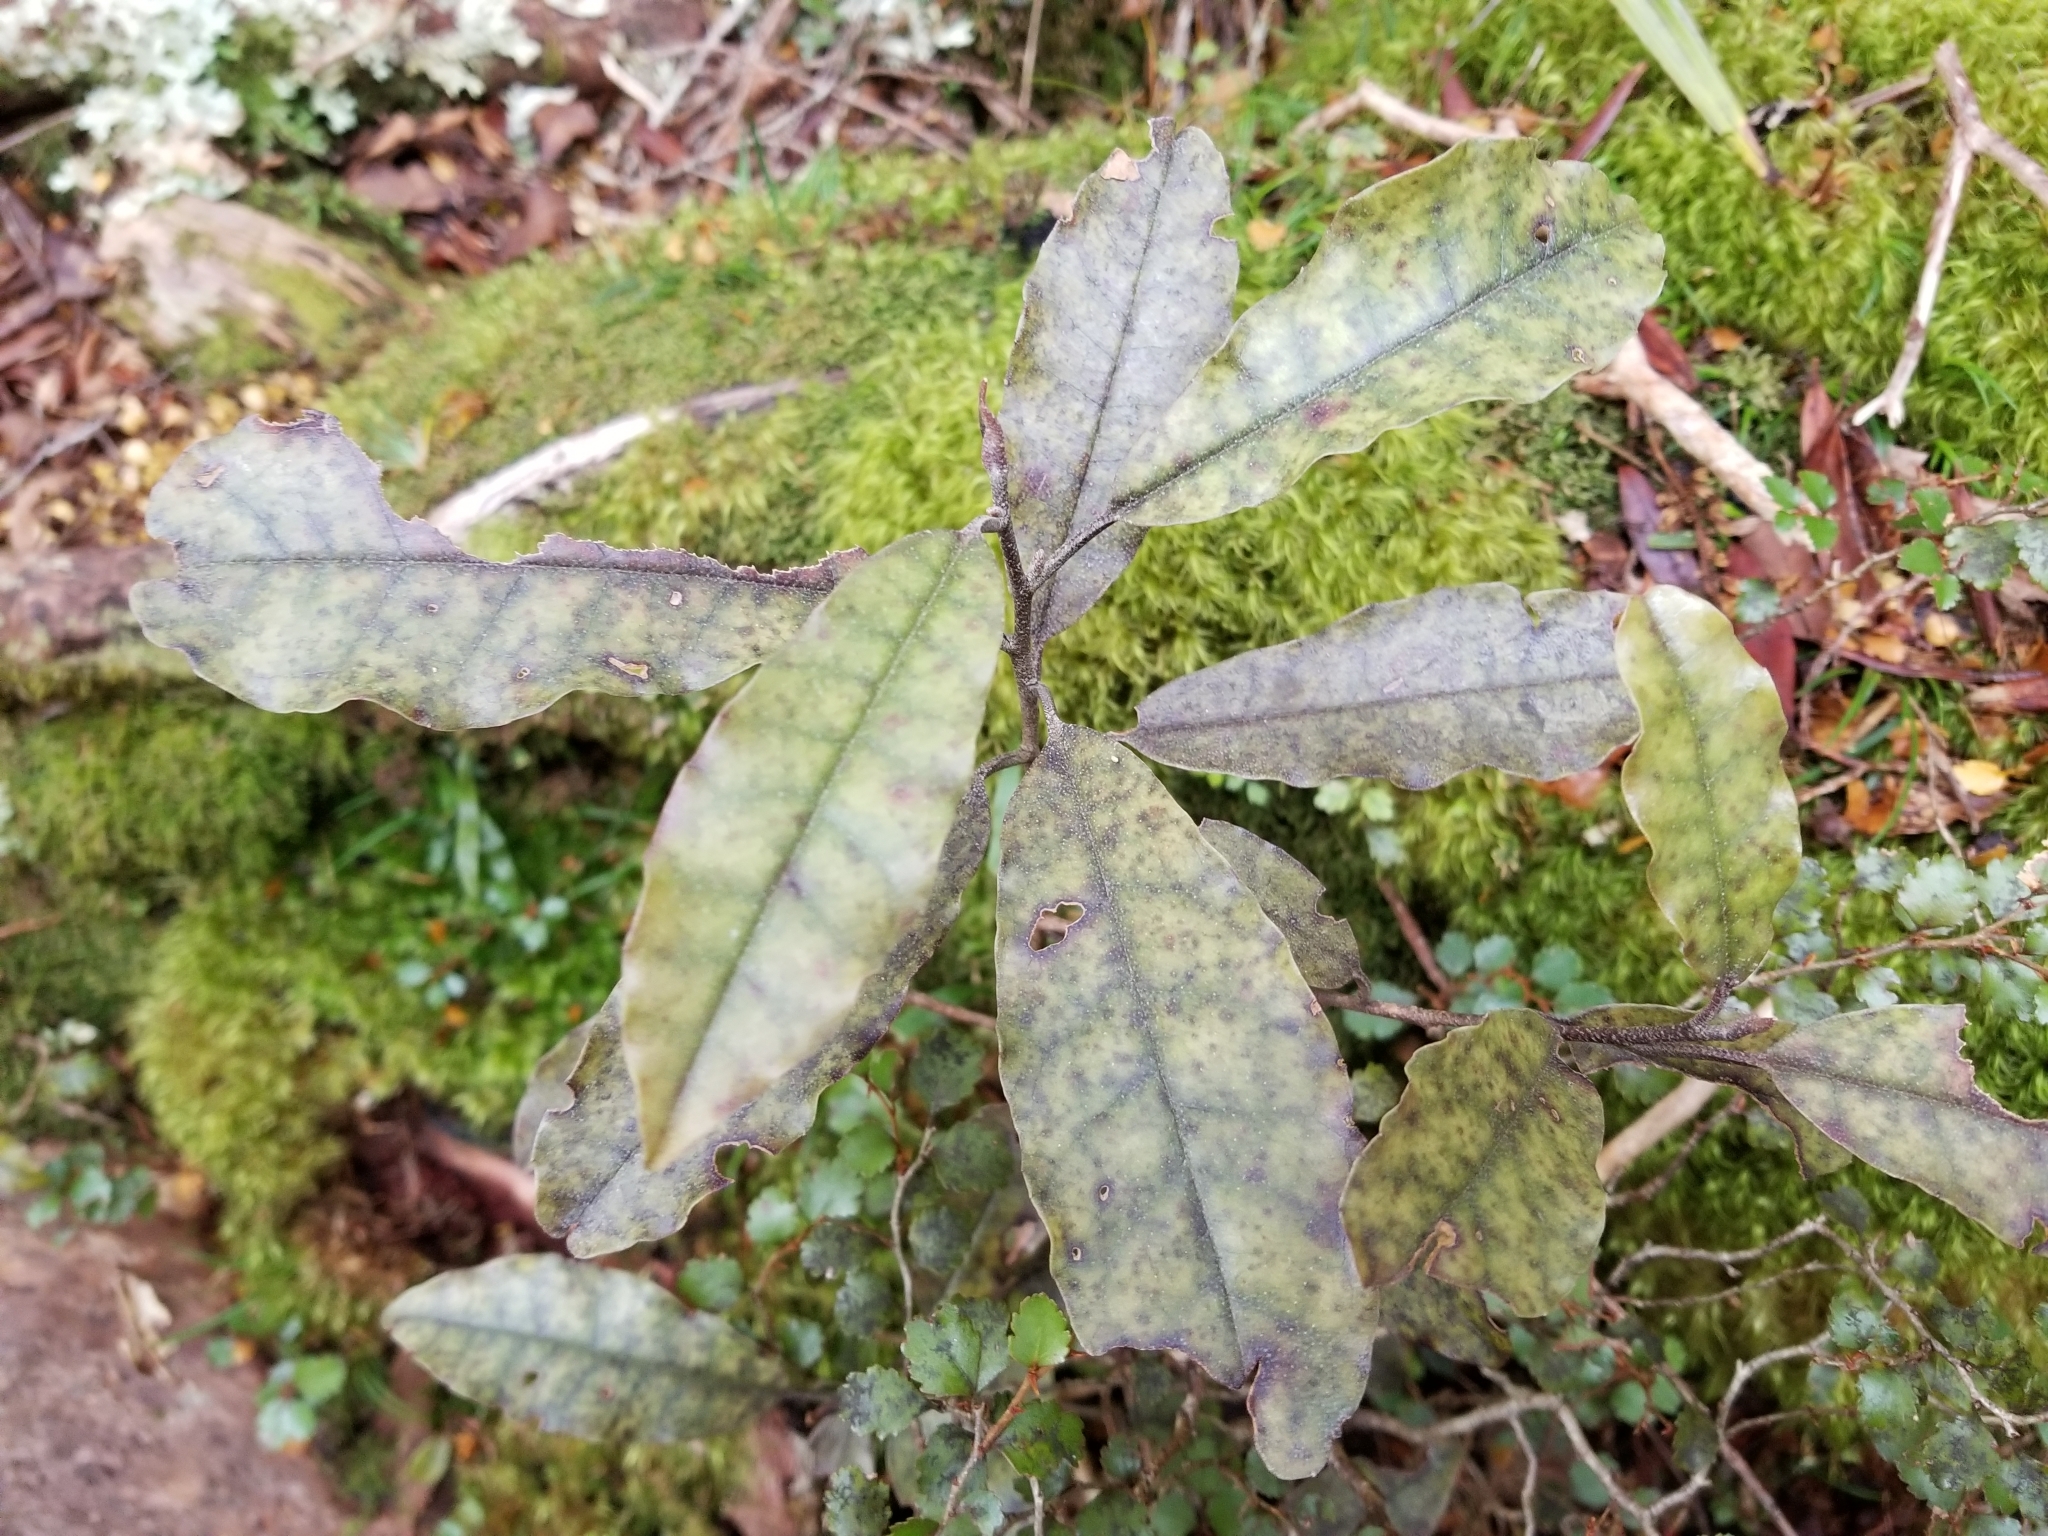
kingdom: Plantae
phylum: Tracheophyta
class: Magnoliopsida
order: Paracryphiales
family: Paracryphiaceae
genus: Quintinia
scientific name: Quintinia serrata
